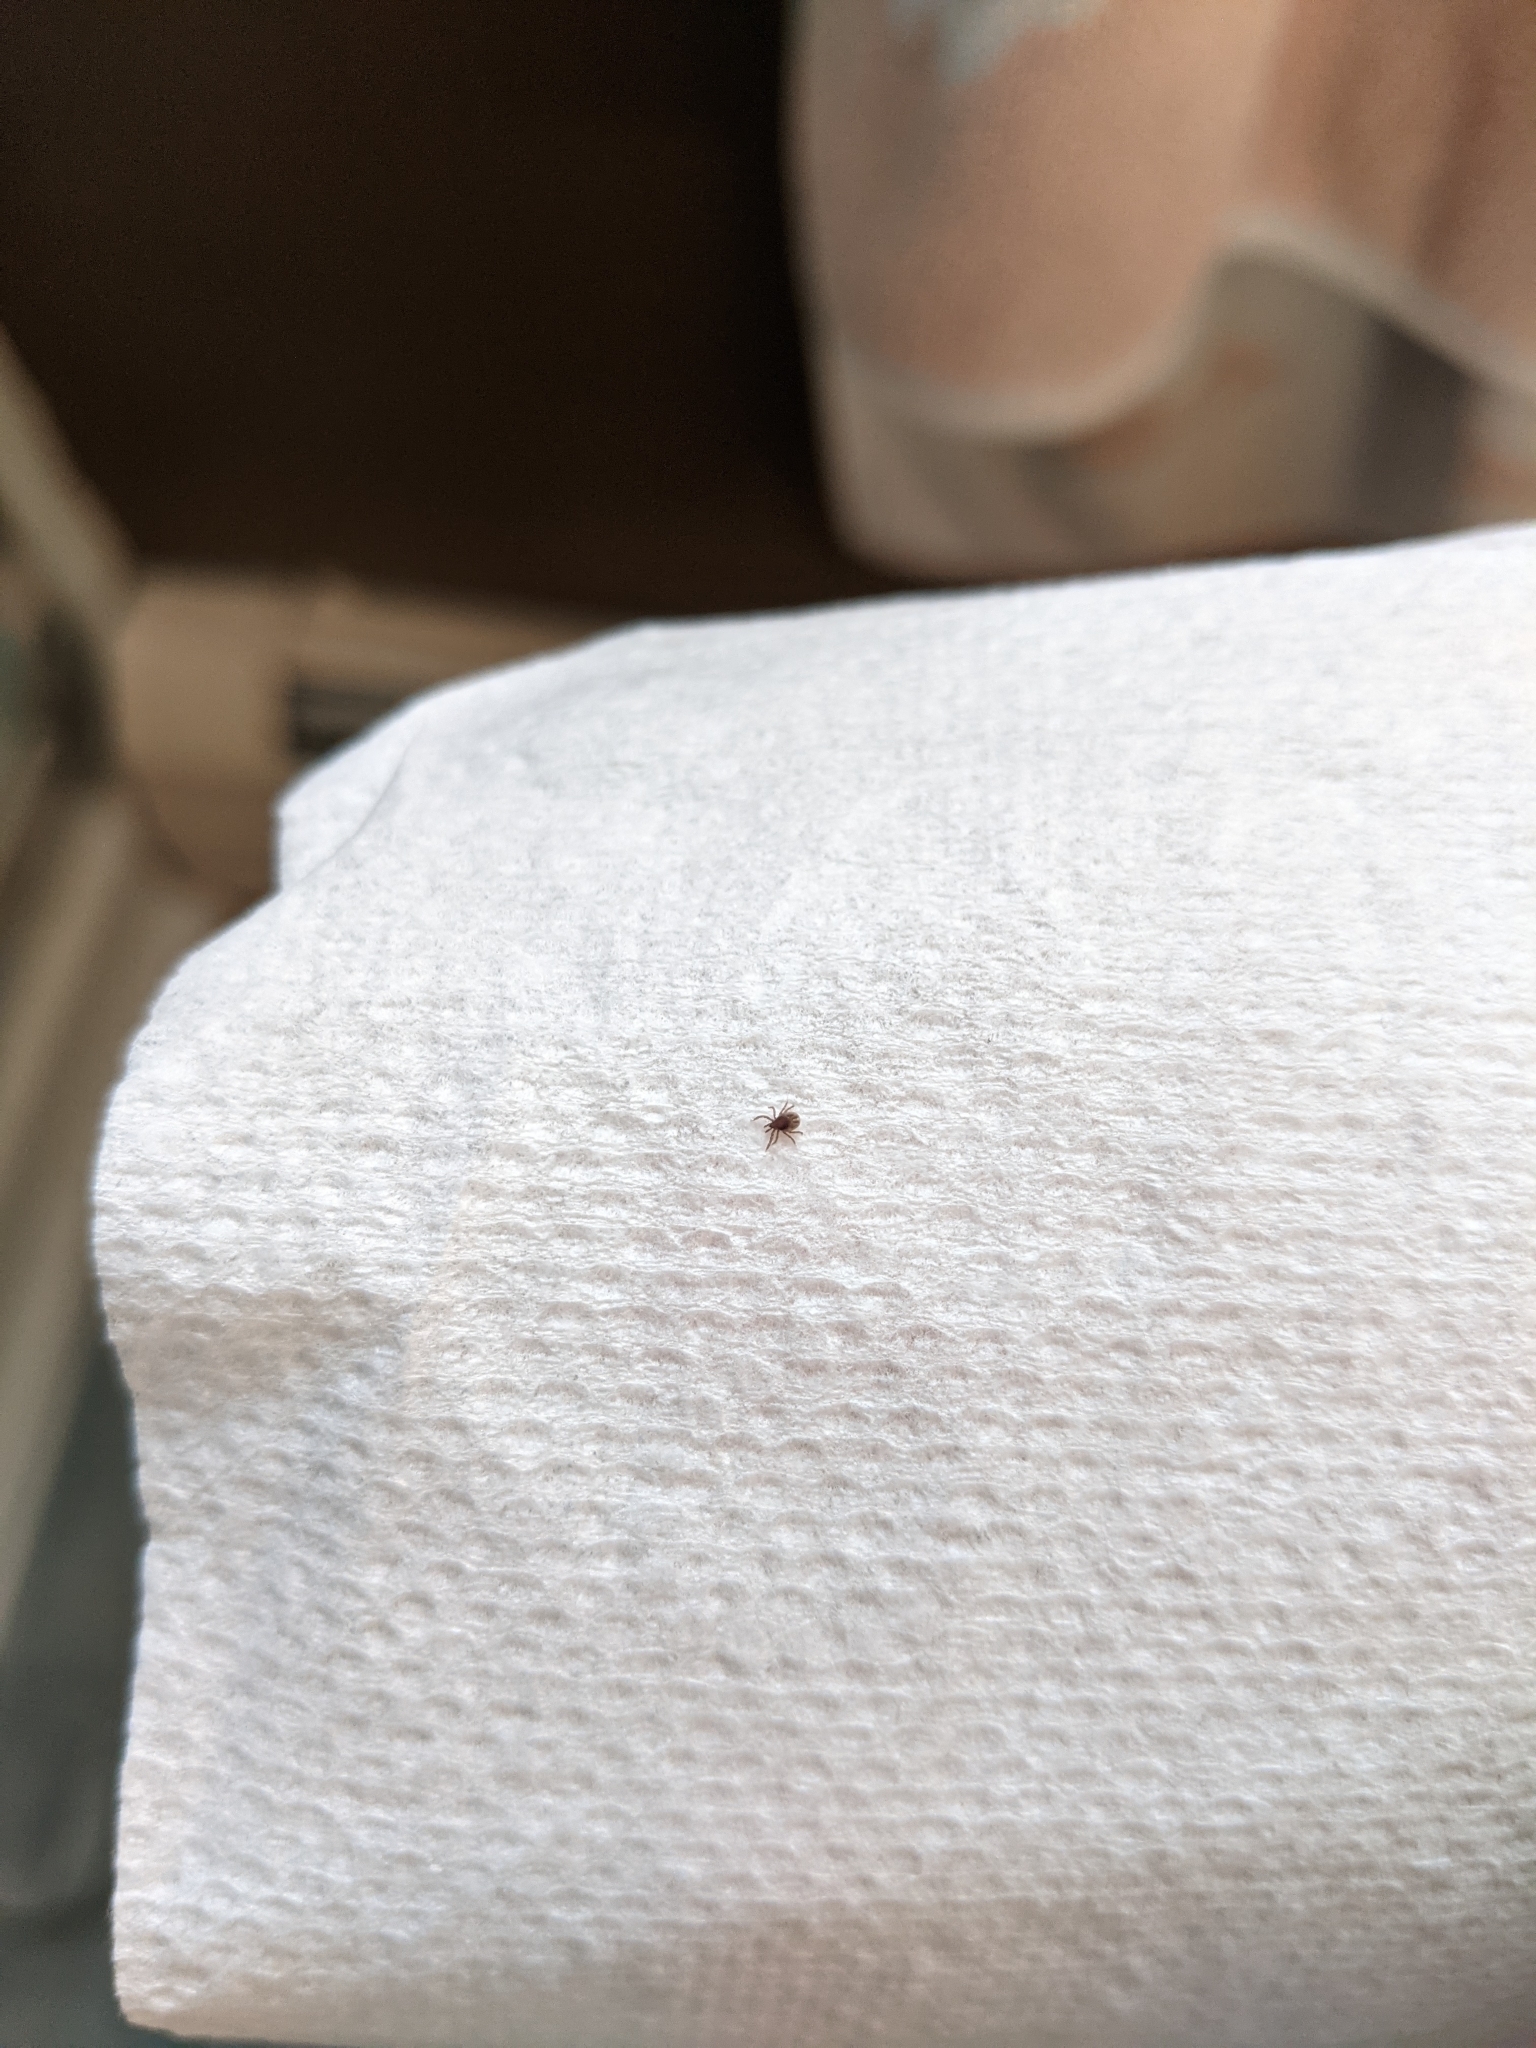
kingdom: Animalia
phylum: Arthropoda
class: Arachnida
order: Ixodida
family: Ixodidae
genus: Ixodes
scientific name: Ixodes scapularis
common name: Black legged tick
